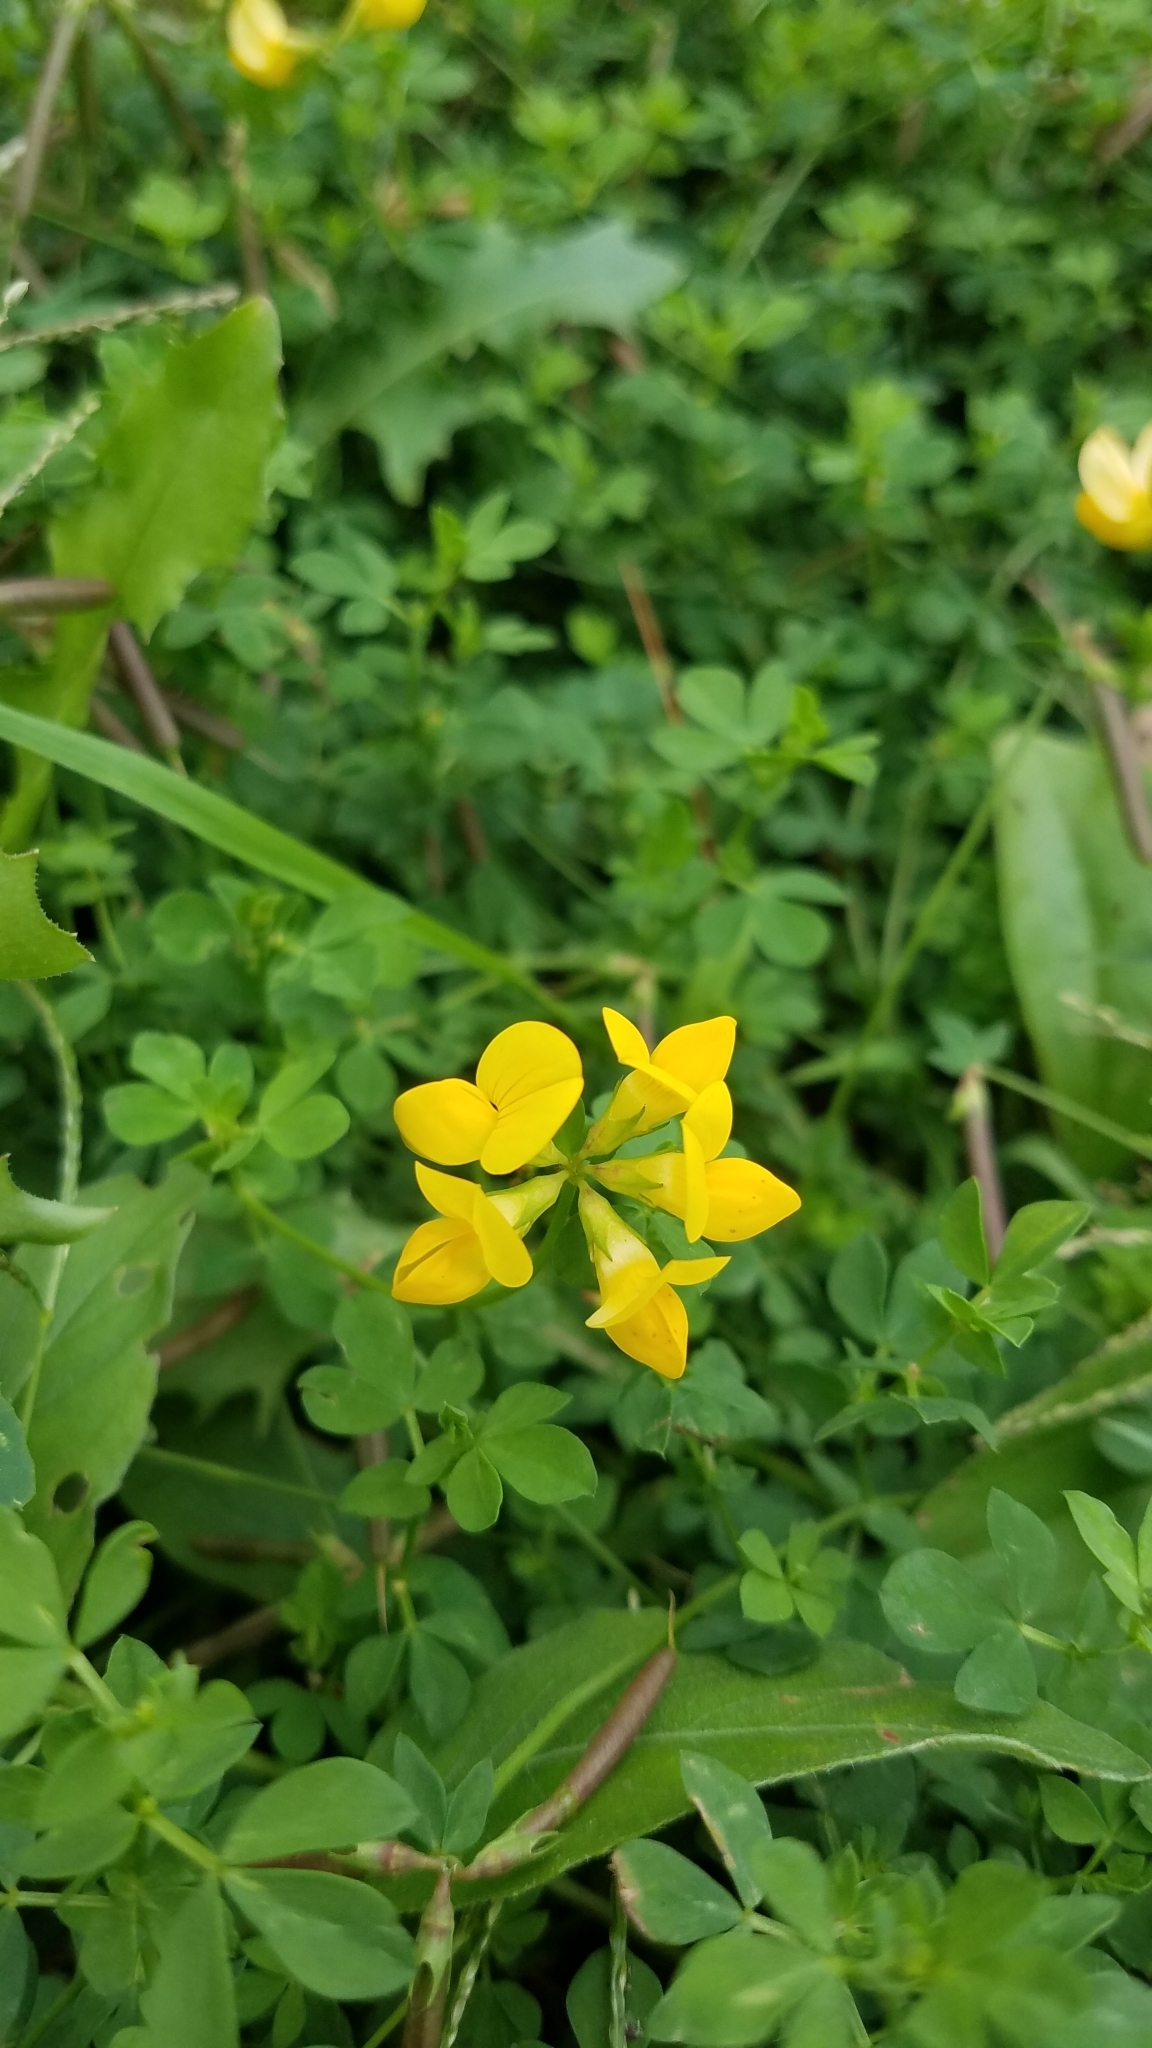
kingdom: Plantae
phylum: Tracheophyta
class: Magnoliopsida
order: Fabales
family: Fabaceae
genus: Lotus
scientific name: Lotus corniculatus
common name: Common bird's-foot-trefoil
